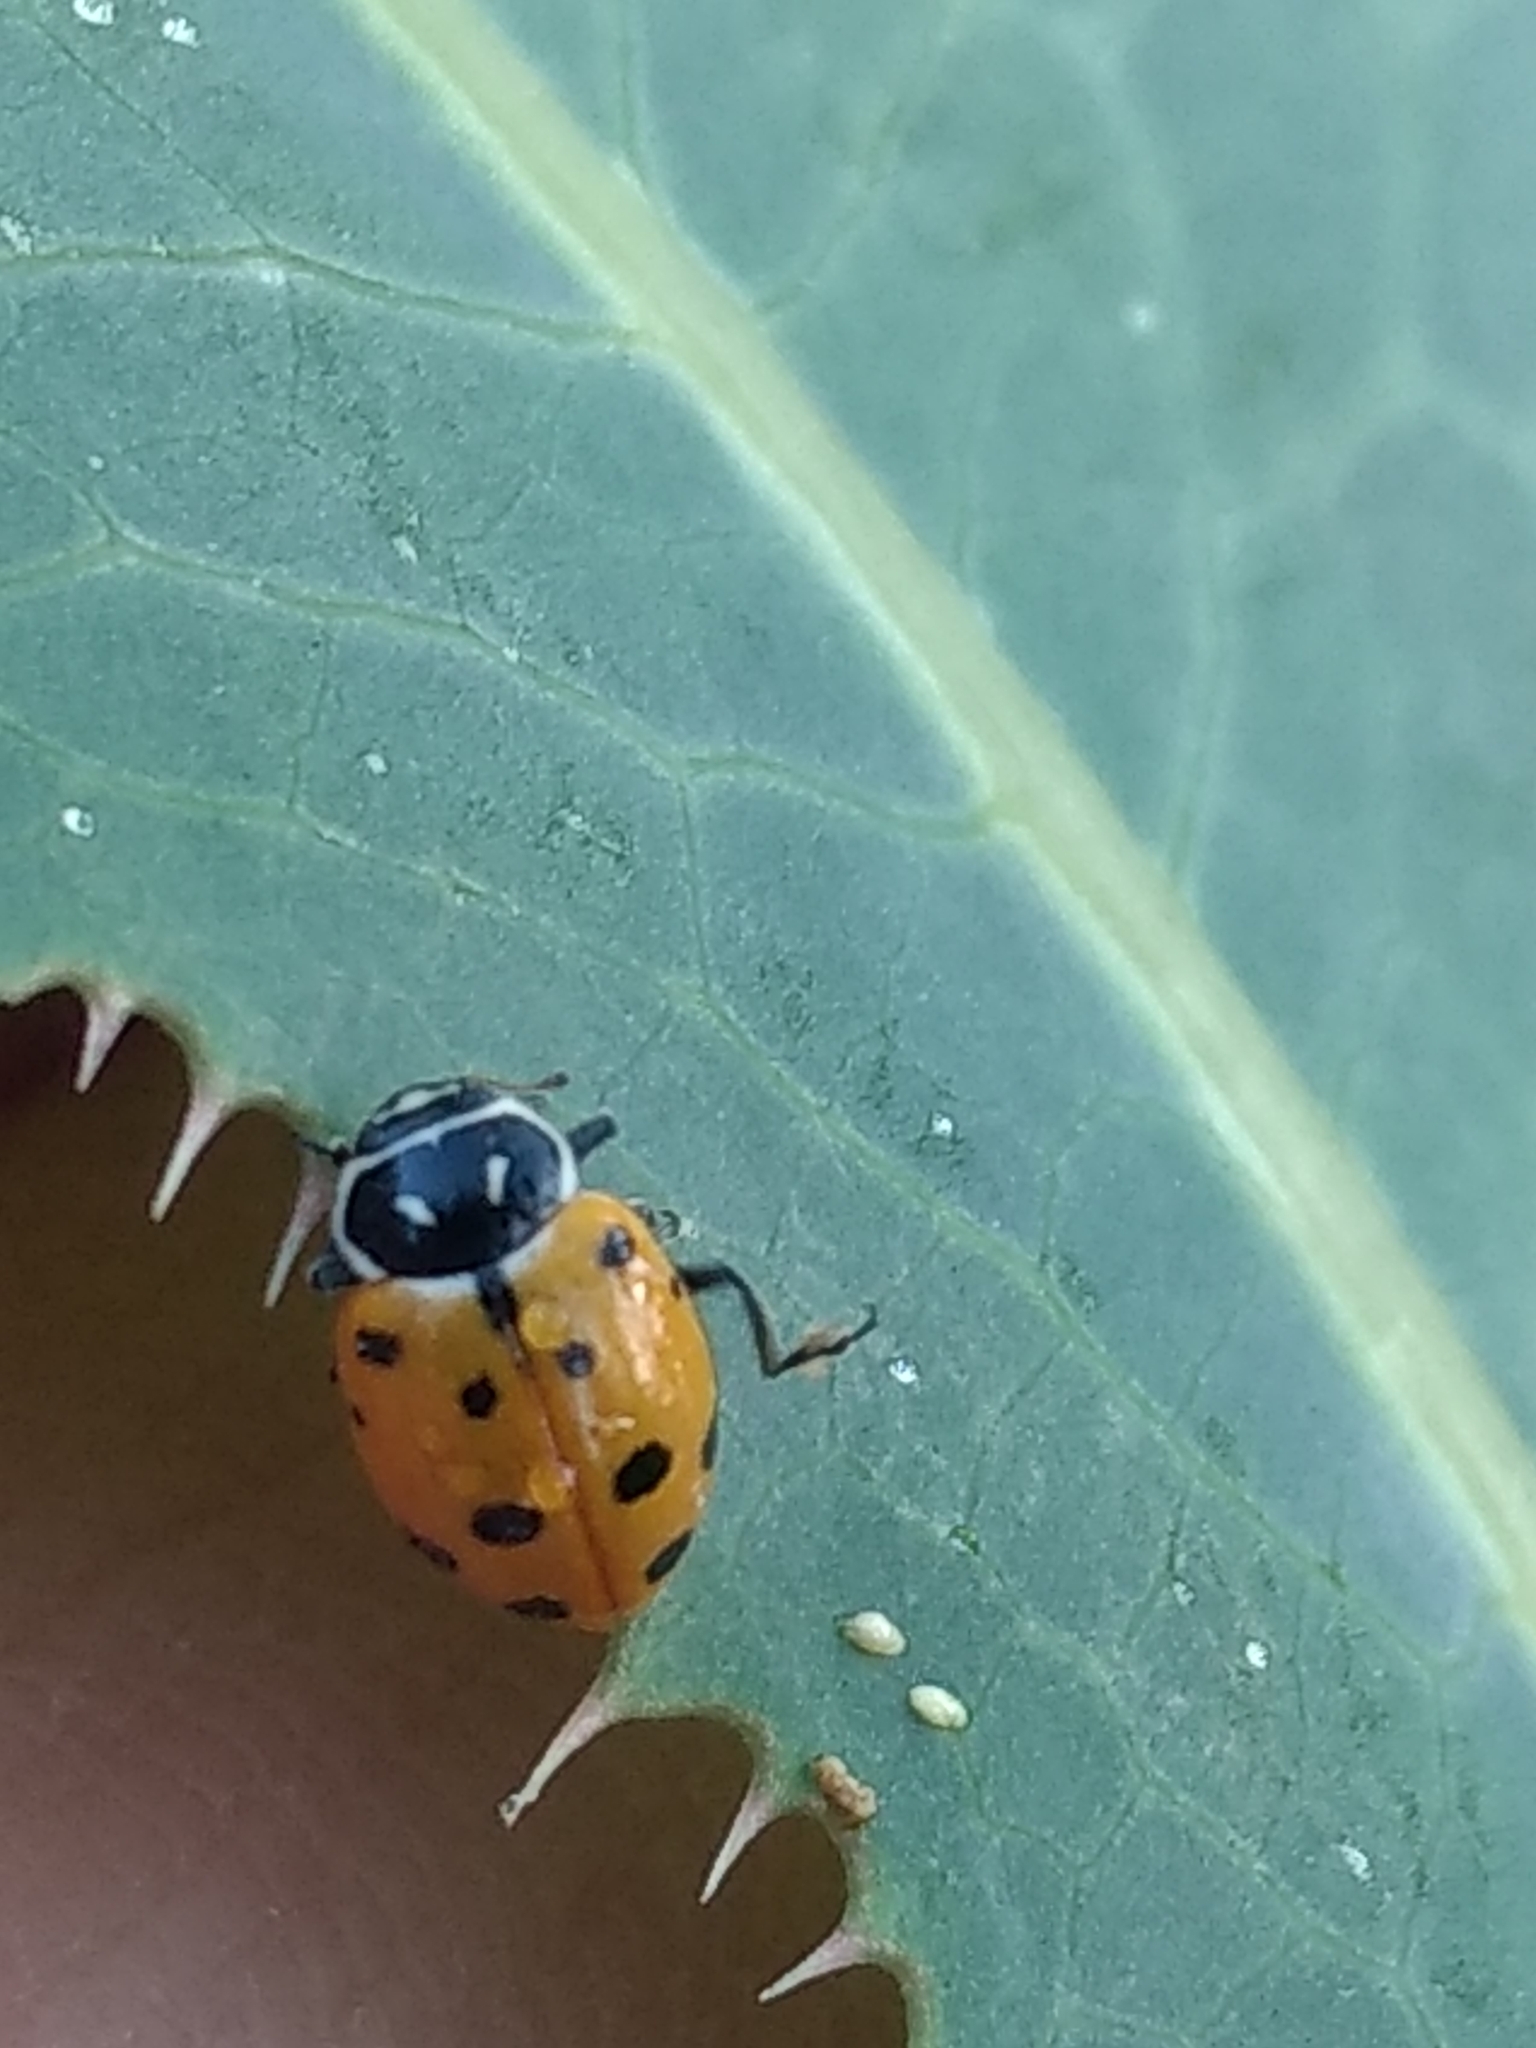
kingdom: Animalia
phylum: Arthropoda
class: Insecta
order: Coleoptera
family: Coccinellidae
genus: Hippodamia
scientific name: Hippodamia convergens
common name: Convergent lady beetle
